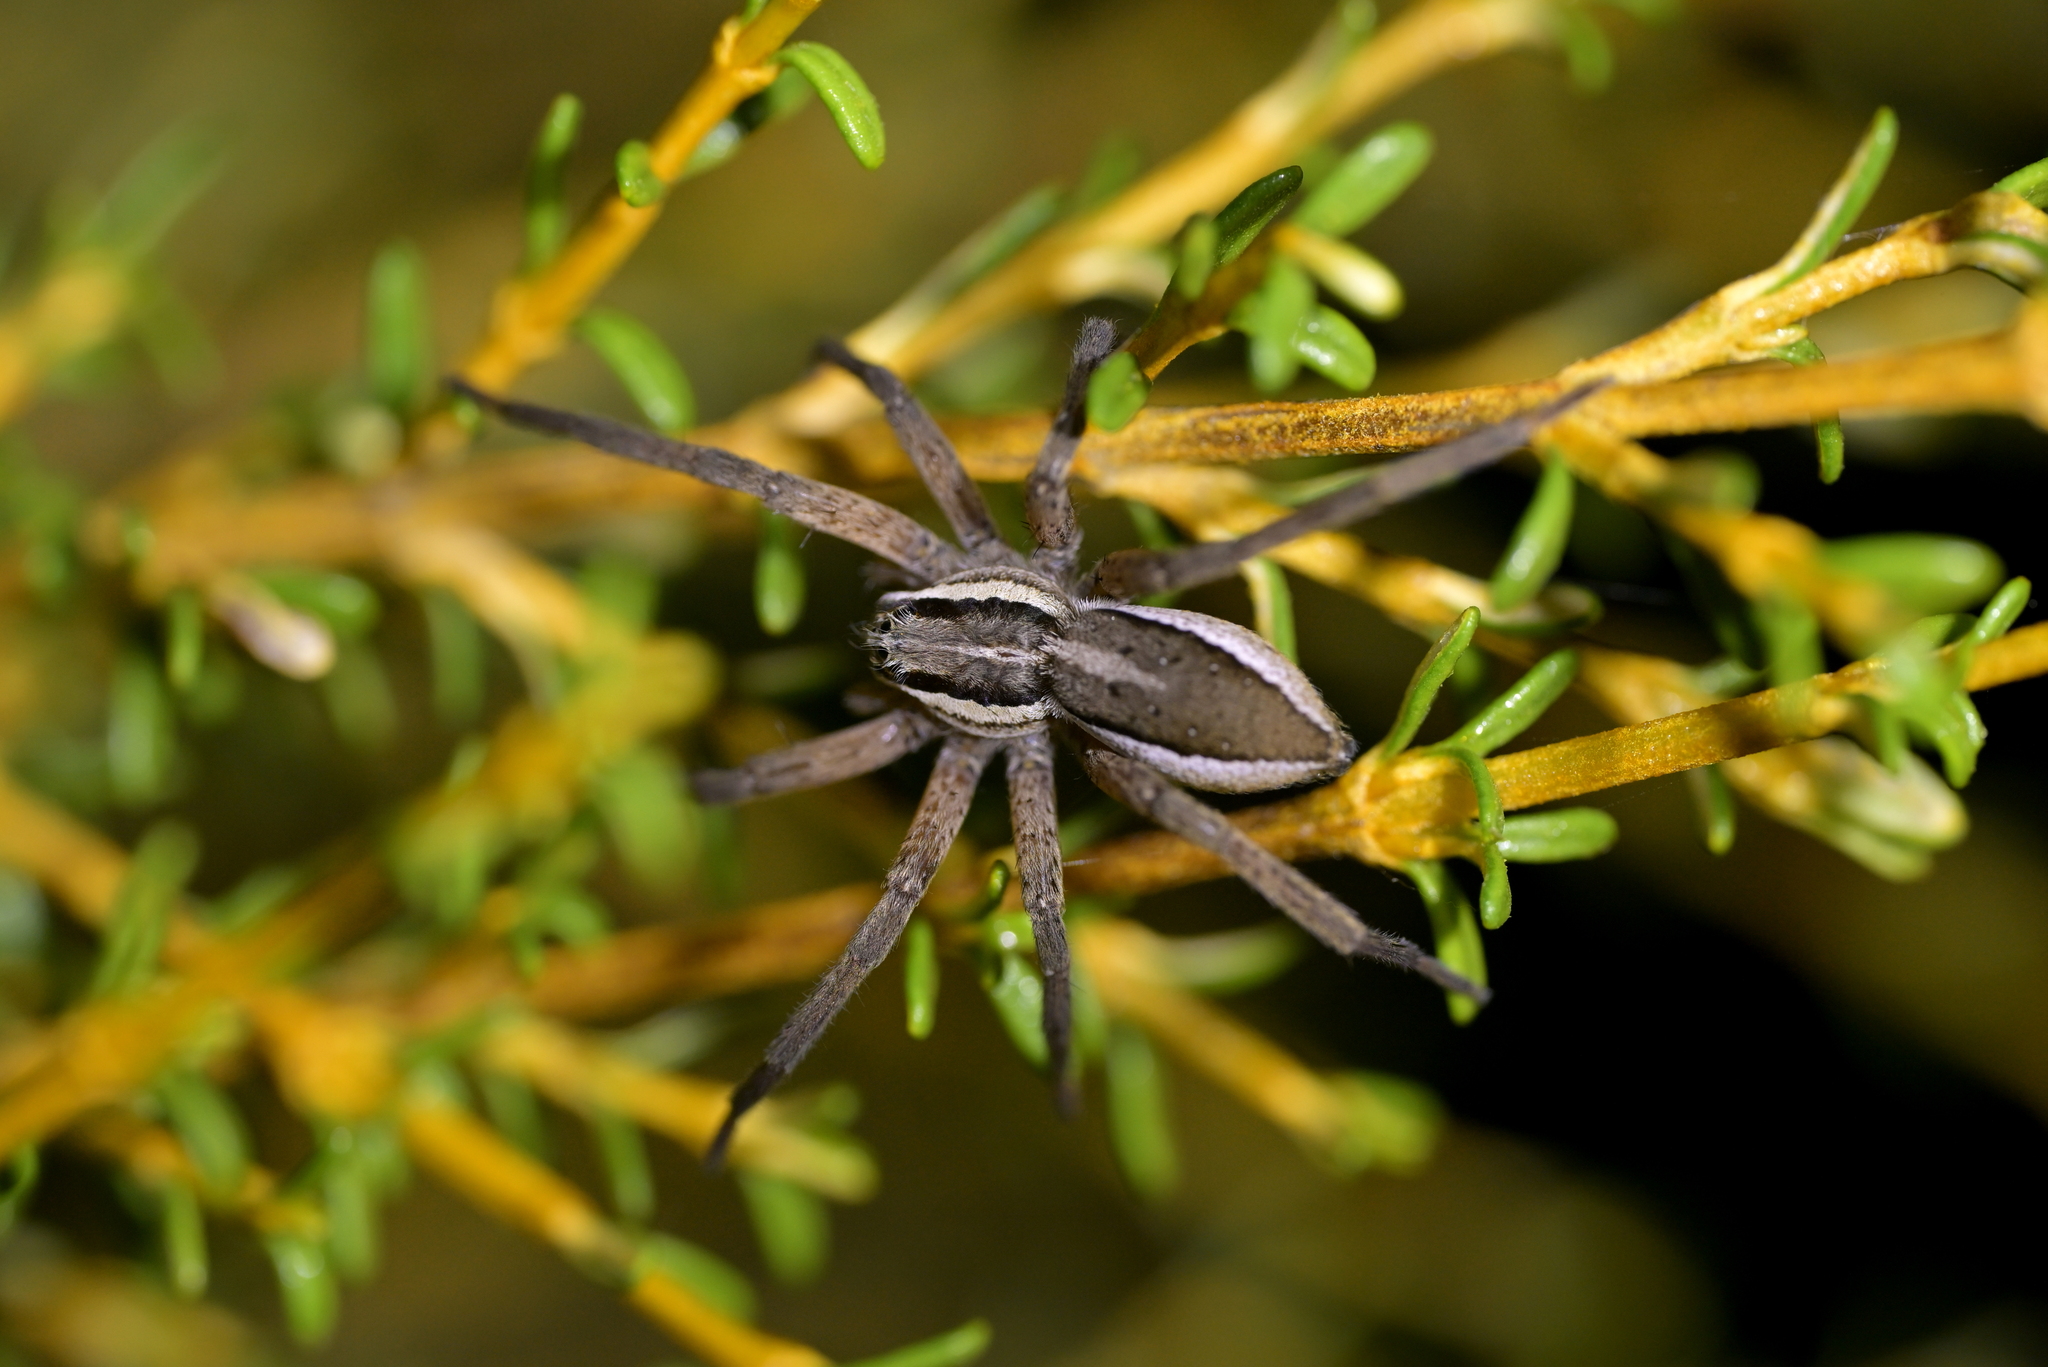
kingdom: Animalia
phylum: Arthropoda
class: Arachnida
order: Araneae
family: Pisauridae
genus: Dolomedes
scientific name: Dolomedes minor
